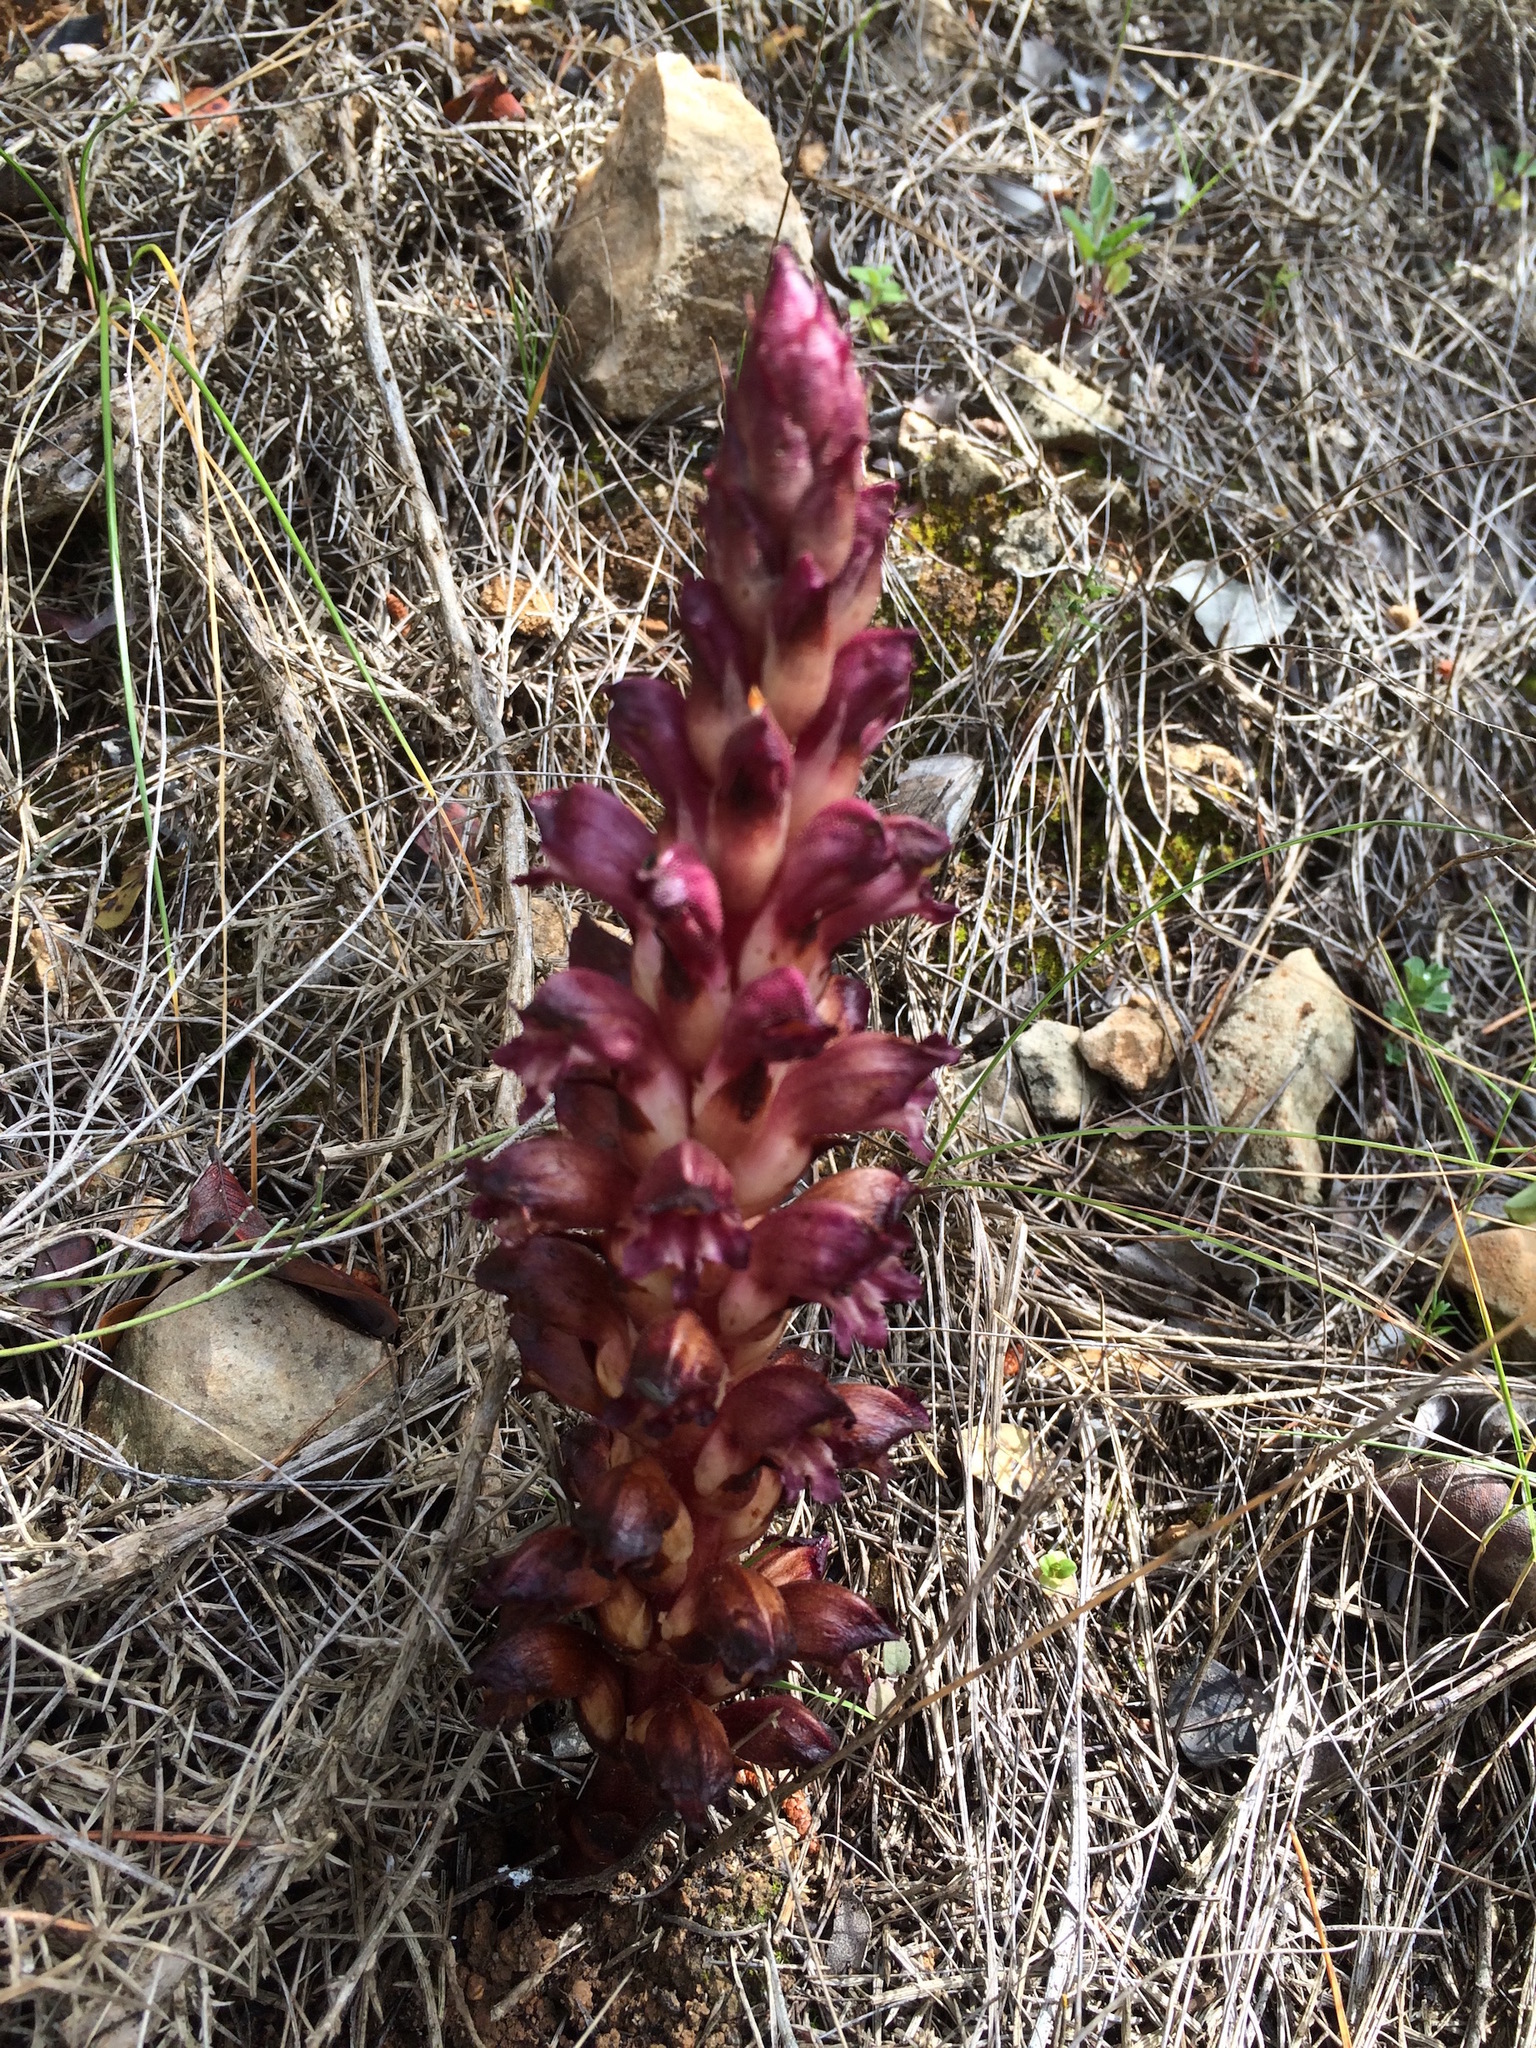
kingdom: Plantae
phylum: Tracheophyta
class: Magnoliopsida
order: Lamiales
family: Orobanchaceae
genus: Boulardia
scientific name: Boulardia latisquama
